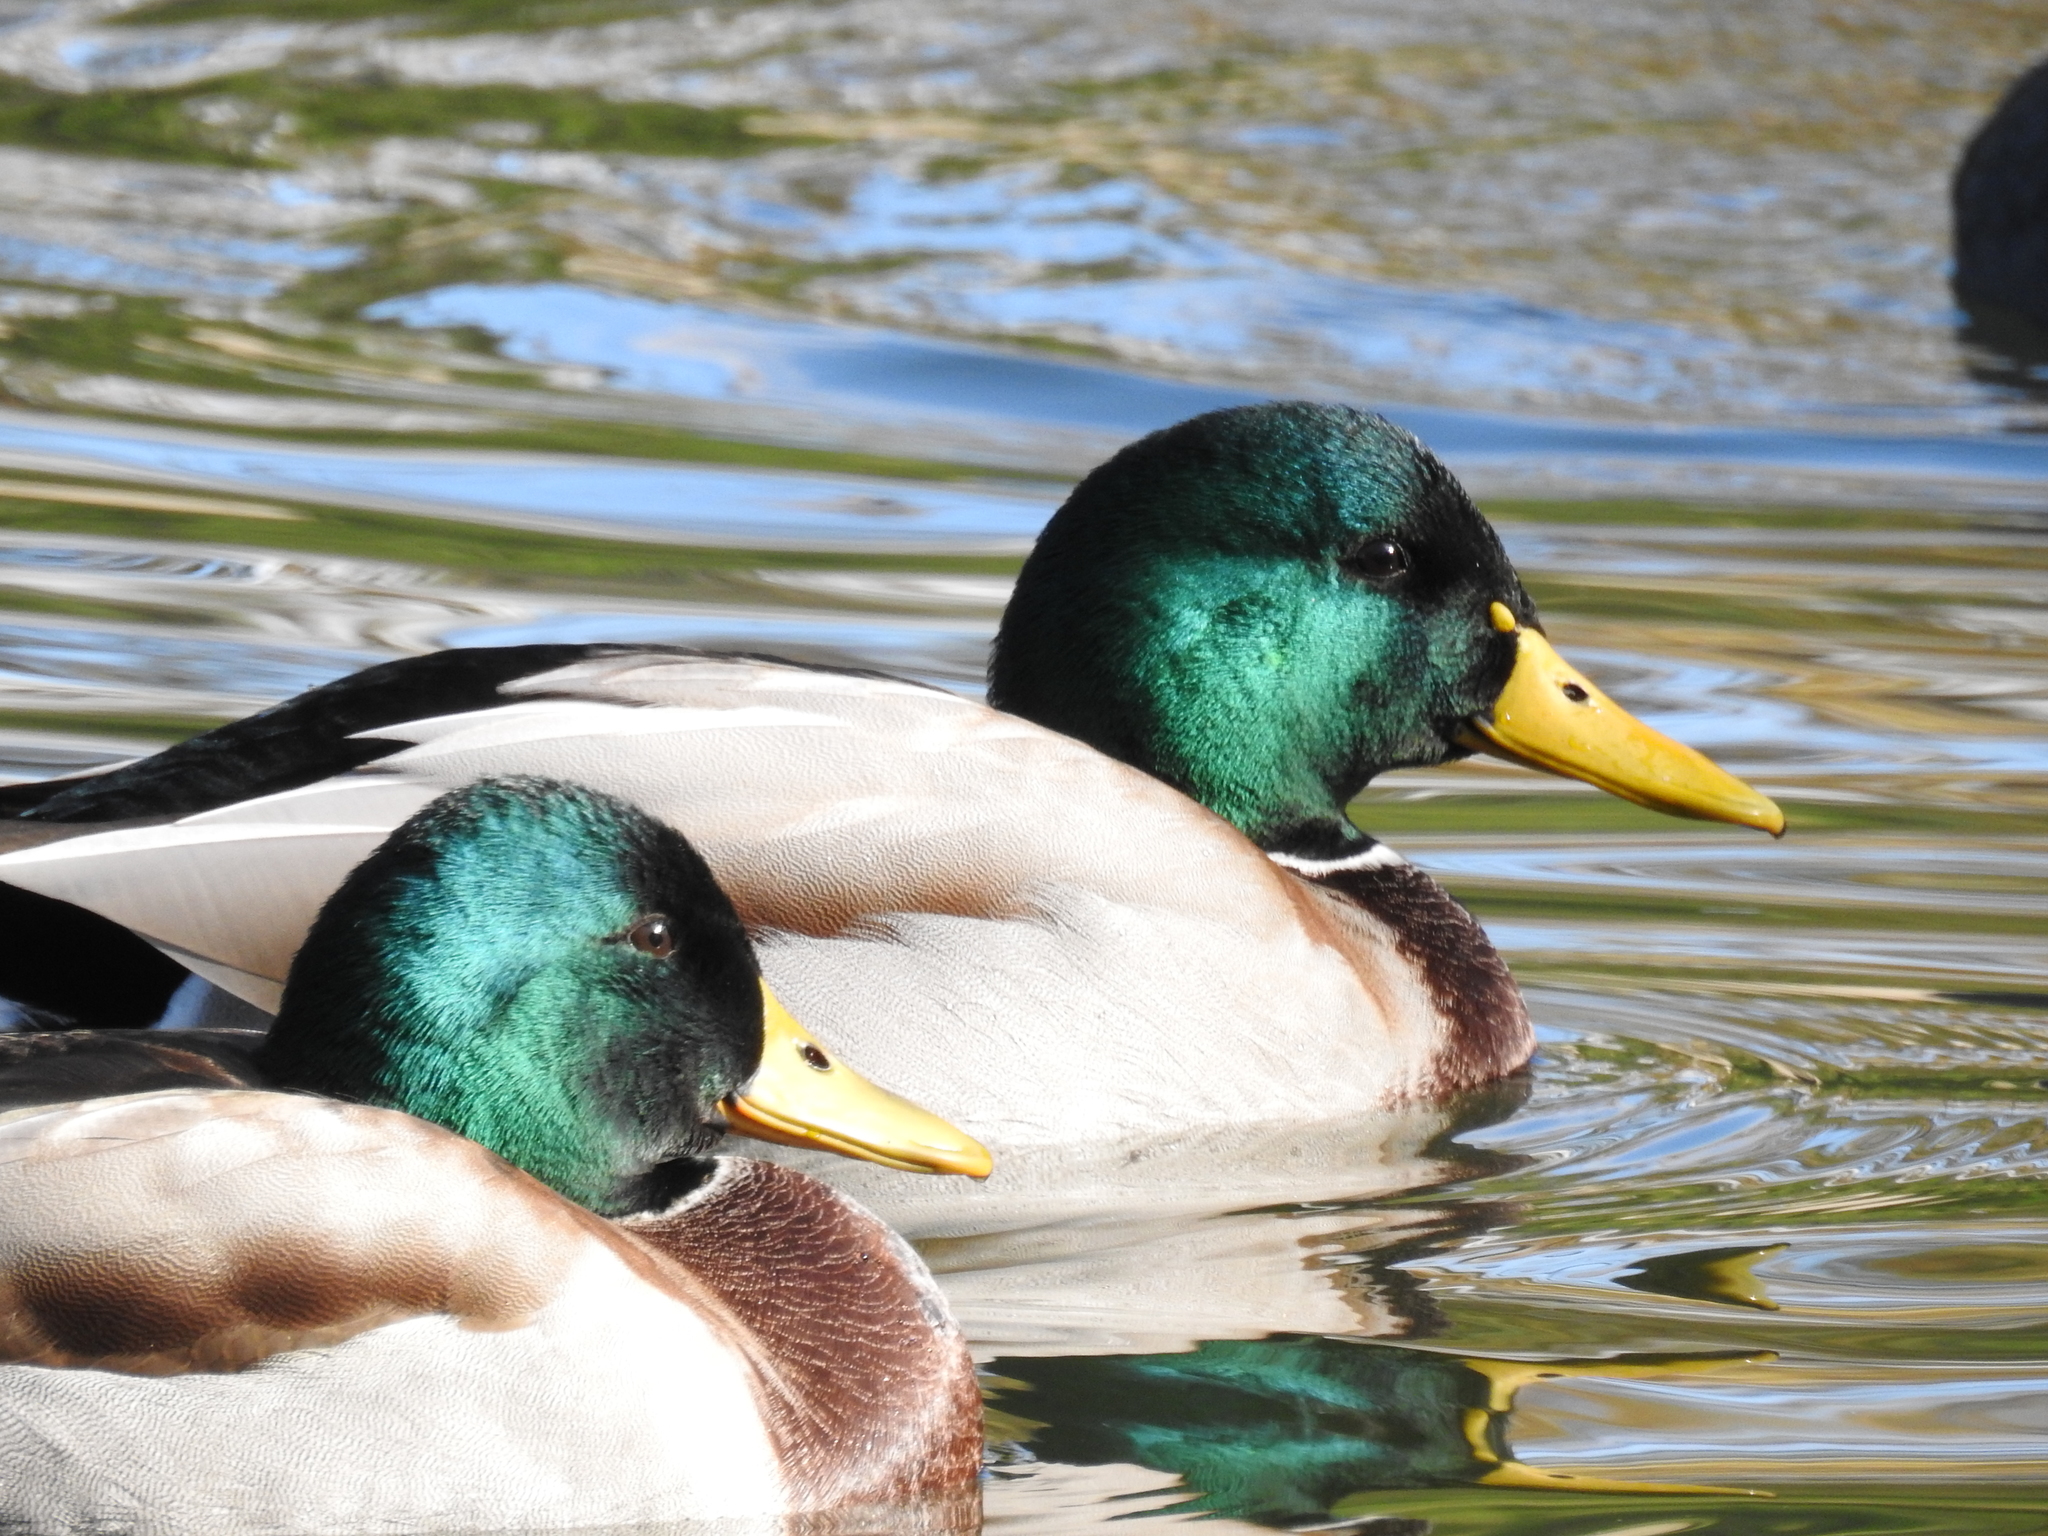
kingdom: Animalia
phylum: Chordata
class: Aves
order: Anseriformes
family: Anatidae
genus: Anas
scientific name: Anas platyrhynchos
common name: Mallard
